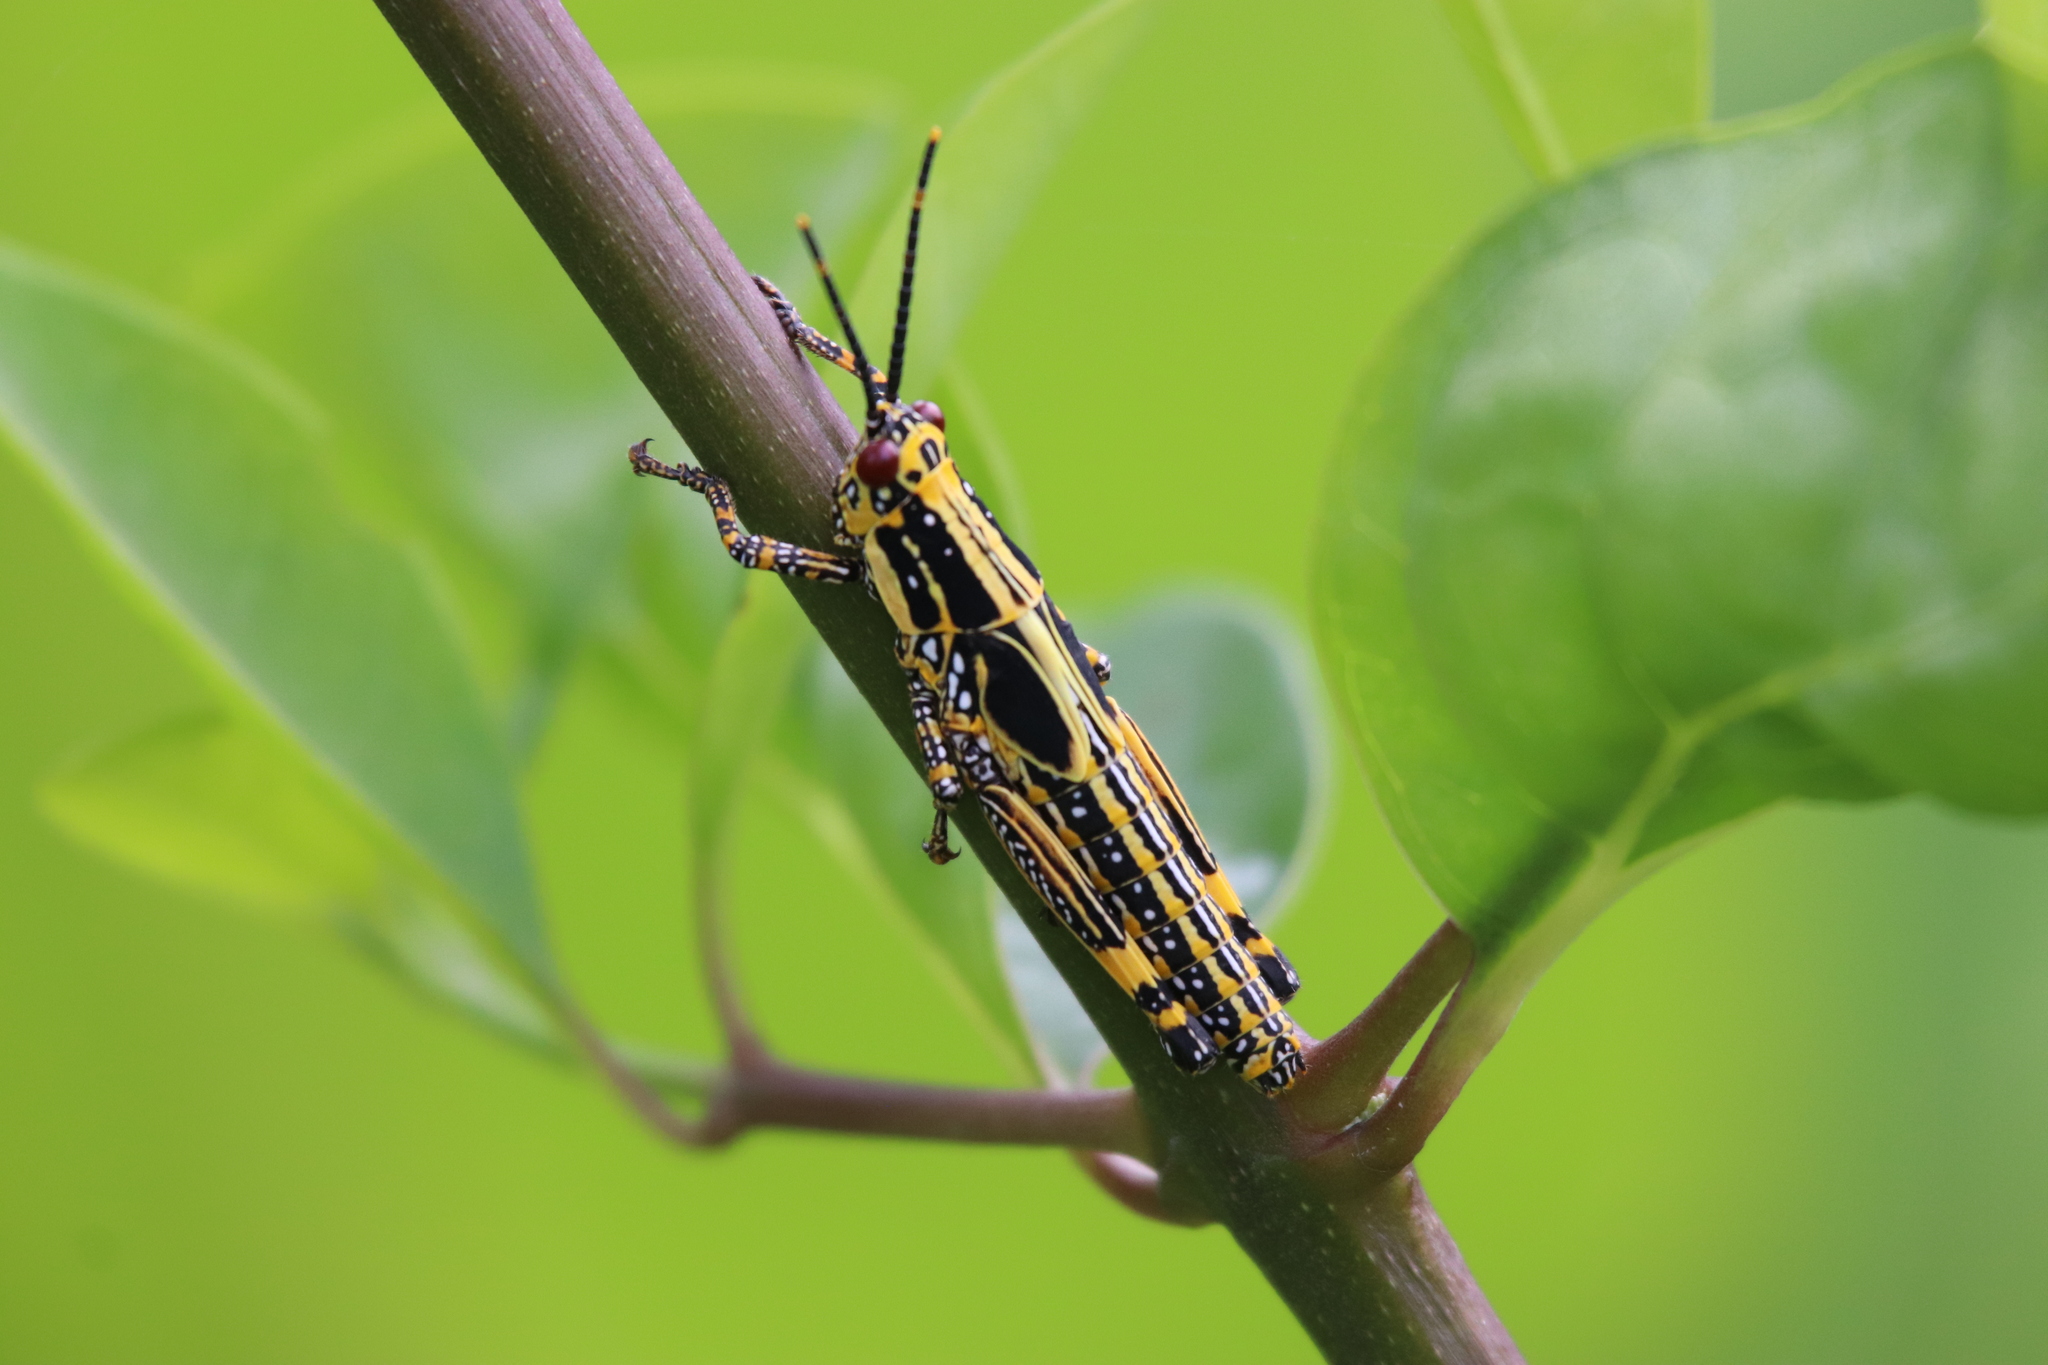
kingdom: Animalia
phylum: Arthropoda
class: Insecta
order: Orthoptera
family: Pyrgomorphidae
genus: Zonocerus
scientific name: Zonocerus variegatus
